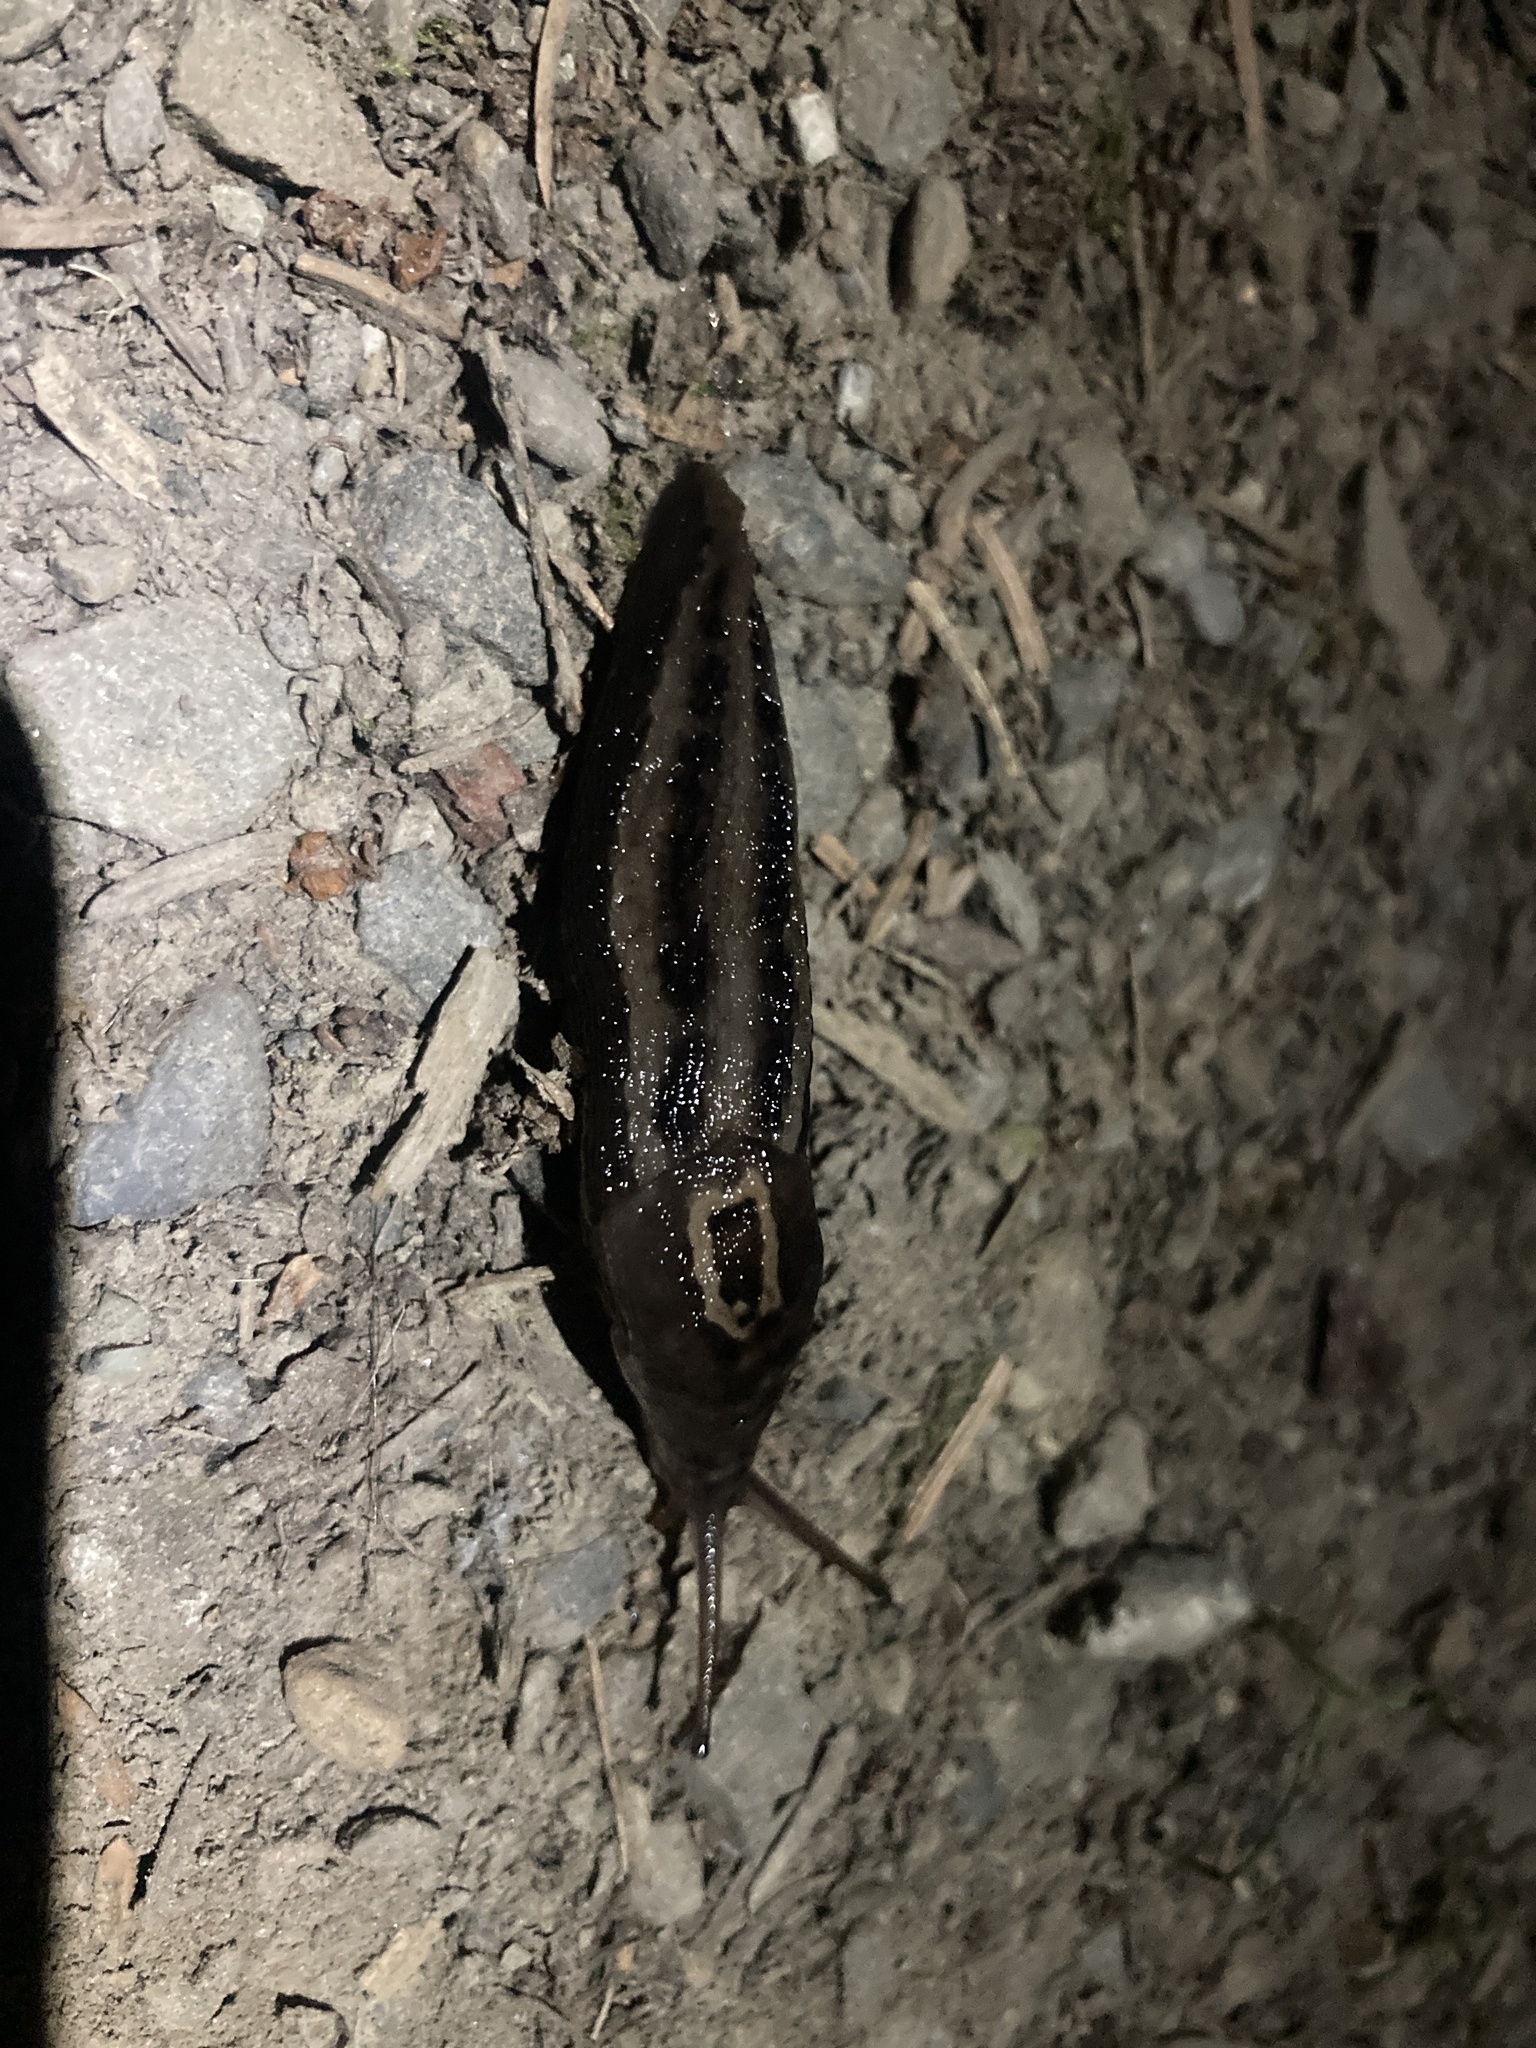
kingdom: Animalia
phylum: Mollusca
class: Gastropoda
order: Stylommatophora
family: Limacidae
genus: Limax
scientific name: Limax maximus
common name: Great grey slug
